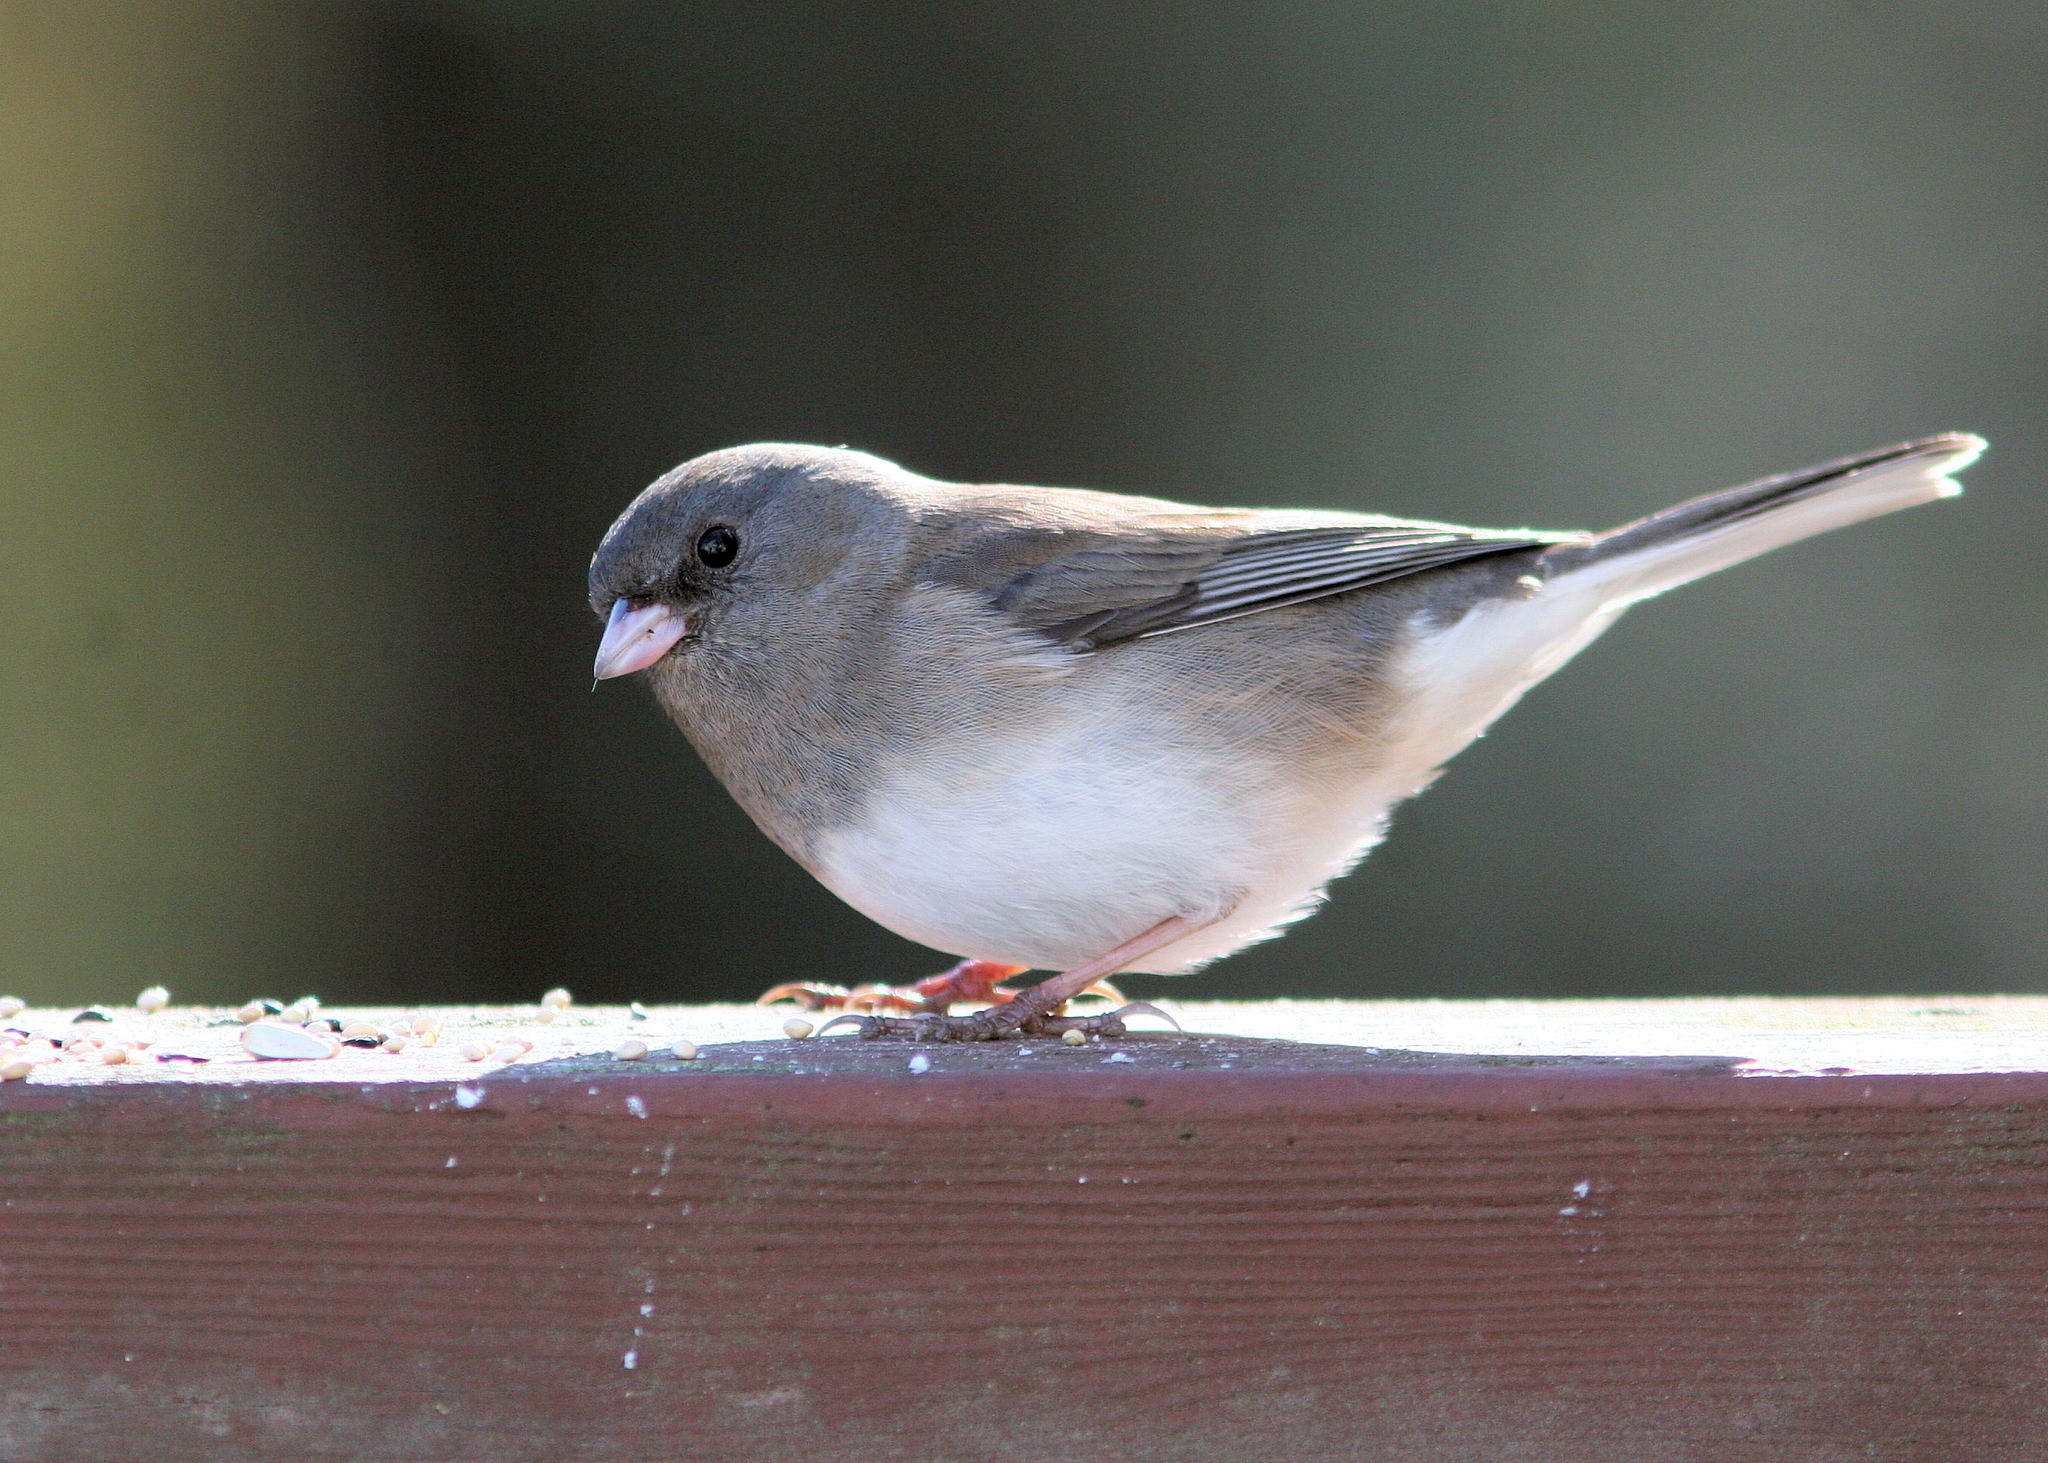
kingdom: Animalia
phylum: Chordata
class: Aves
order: Passeriformes
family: Passerellidae
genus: Junco
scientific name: Junco hyemalis
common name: Dark-eyed junco
